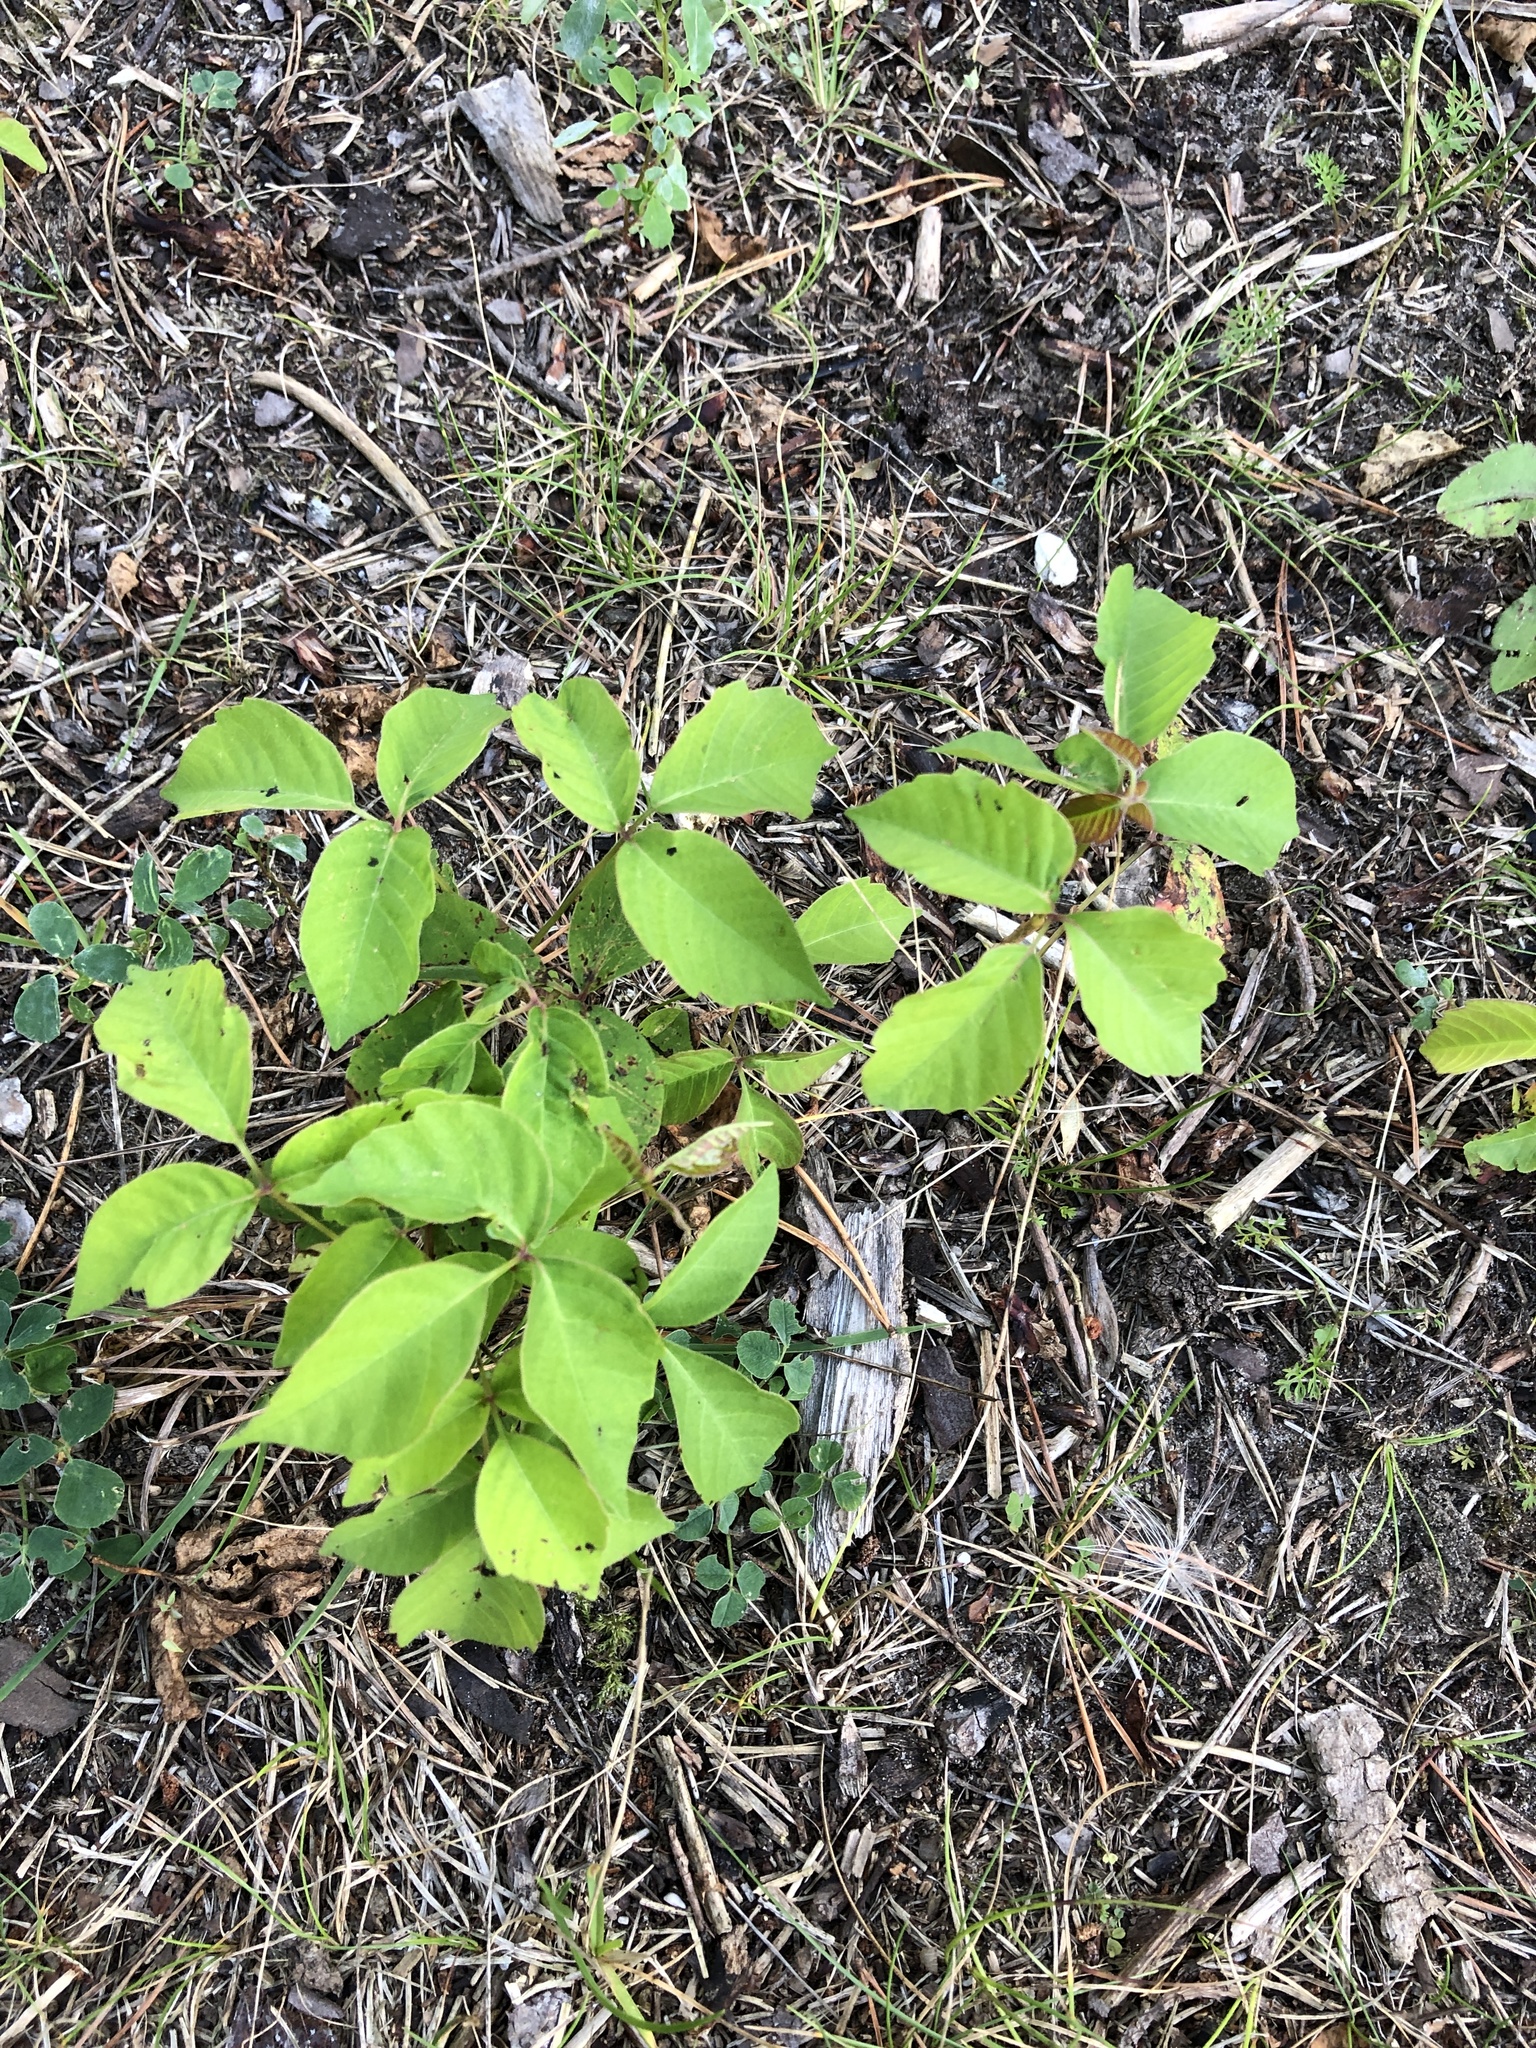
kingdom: Plantae
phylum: Tracheophyta
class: Magnoliopsida
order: Sapindales
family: Anacardiaceae
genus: Toxicodendron
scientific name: Toxicodendron rydbergii
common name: Rydberg's poison-ivy
